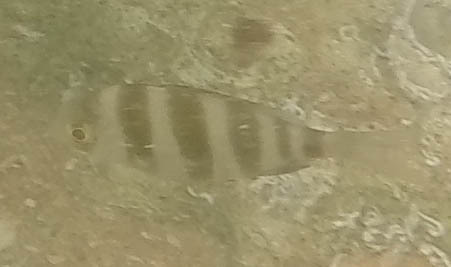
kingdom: Animalia
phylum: Chordata
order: Perciformes
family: Sparidae
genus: Diplodus
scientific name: Diplodus cervinus
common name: Oman porgy
